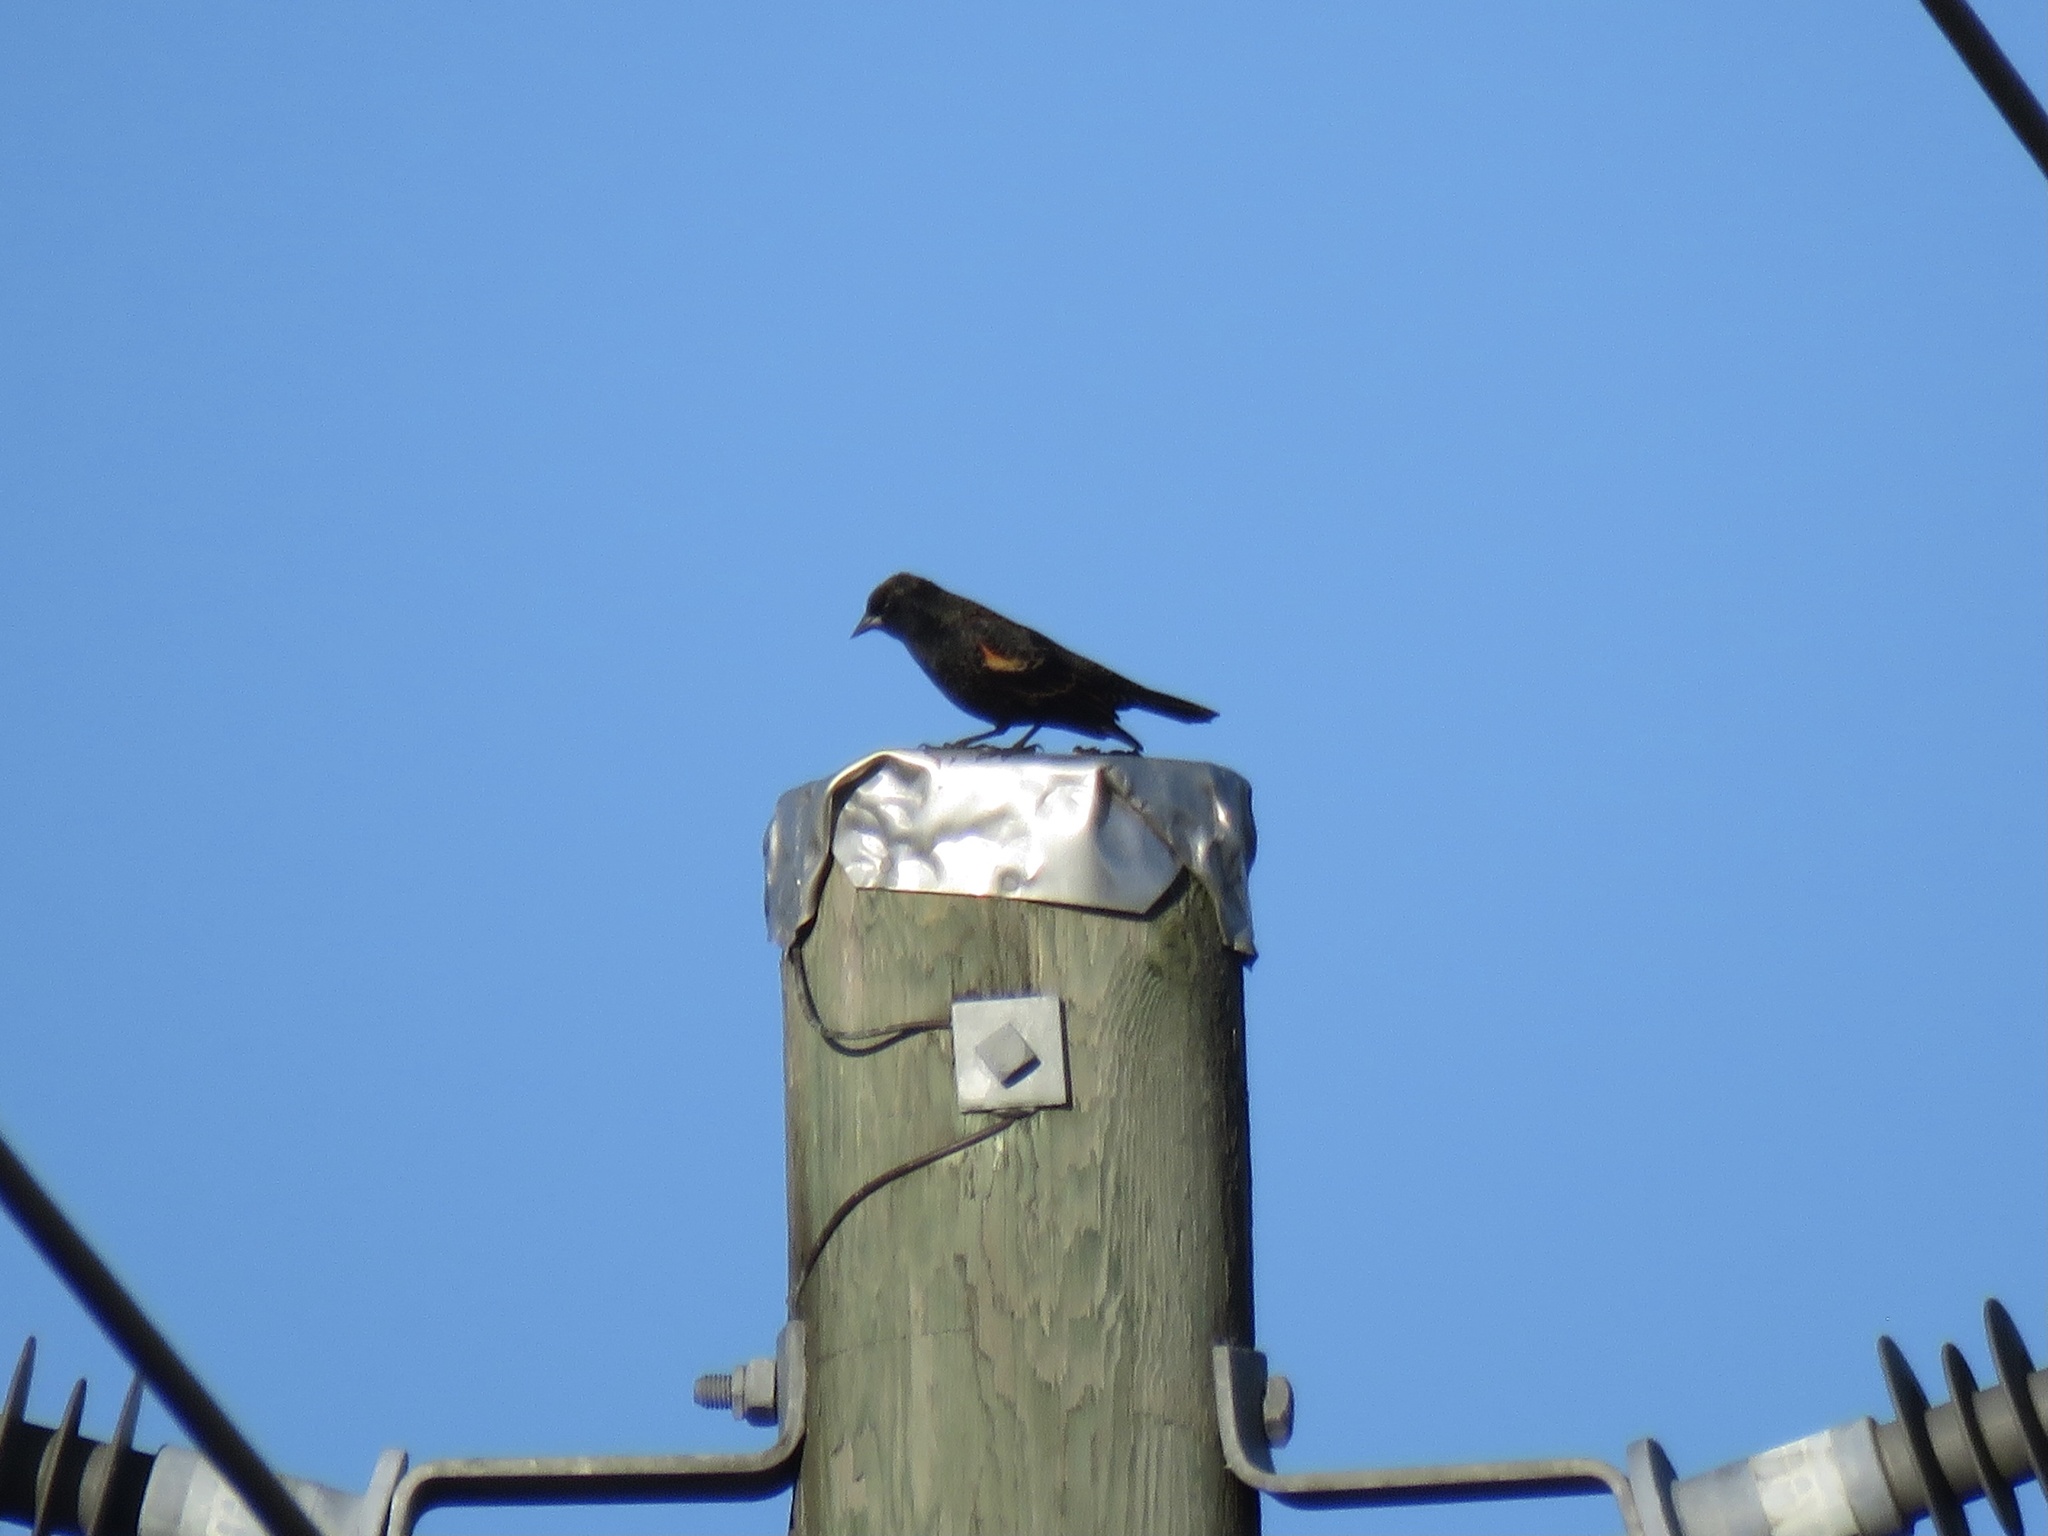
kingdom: Animalia
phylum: Chordata
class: Aves
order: Passeriformes
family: Icteridae
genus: Agelaius
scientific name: Agelaius phoeniceus
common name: Red-winged blackbird
